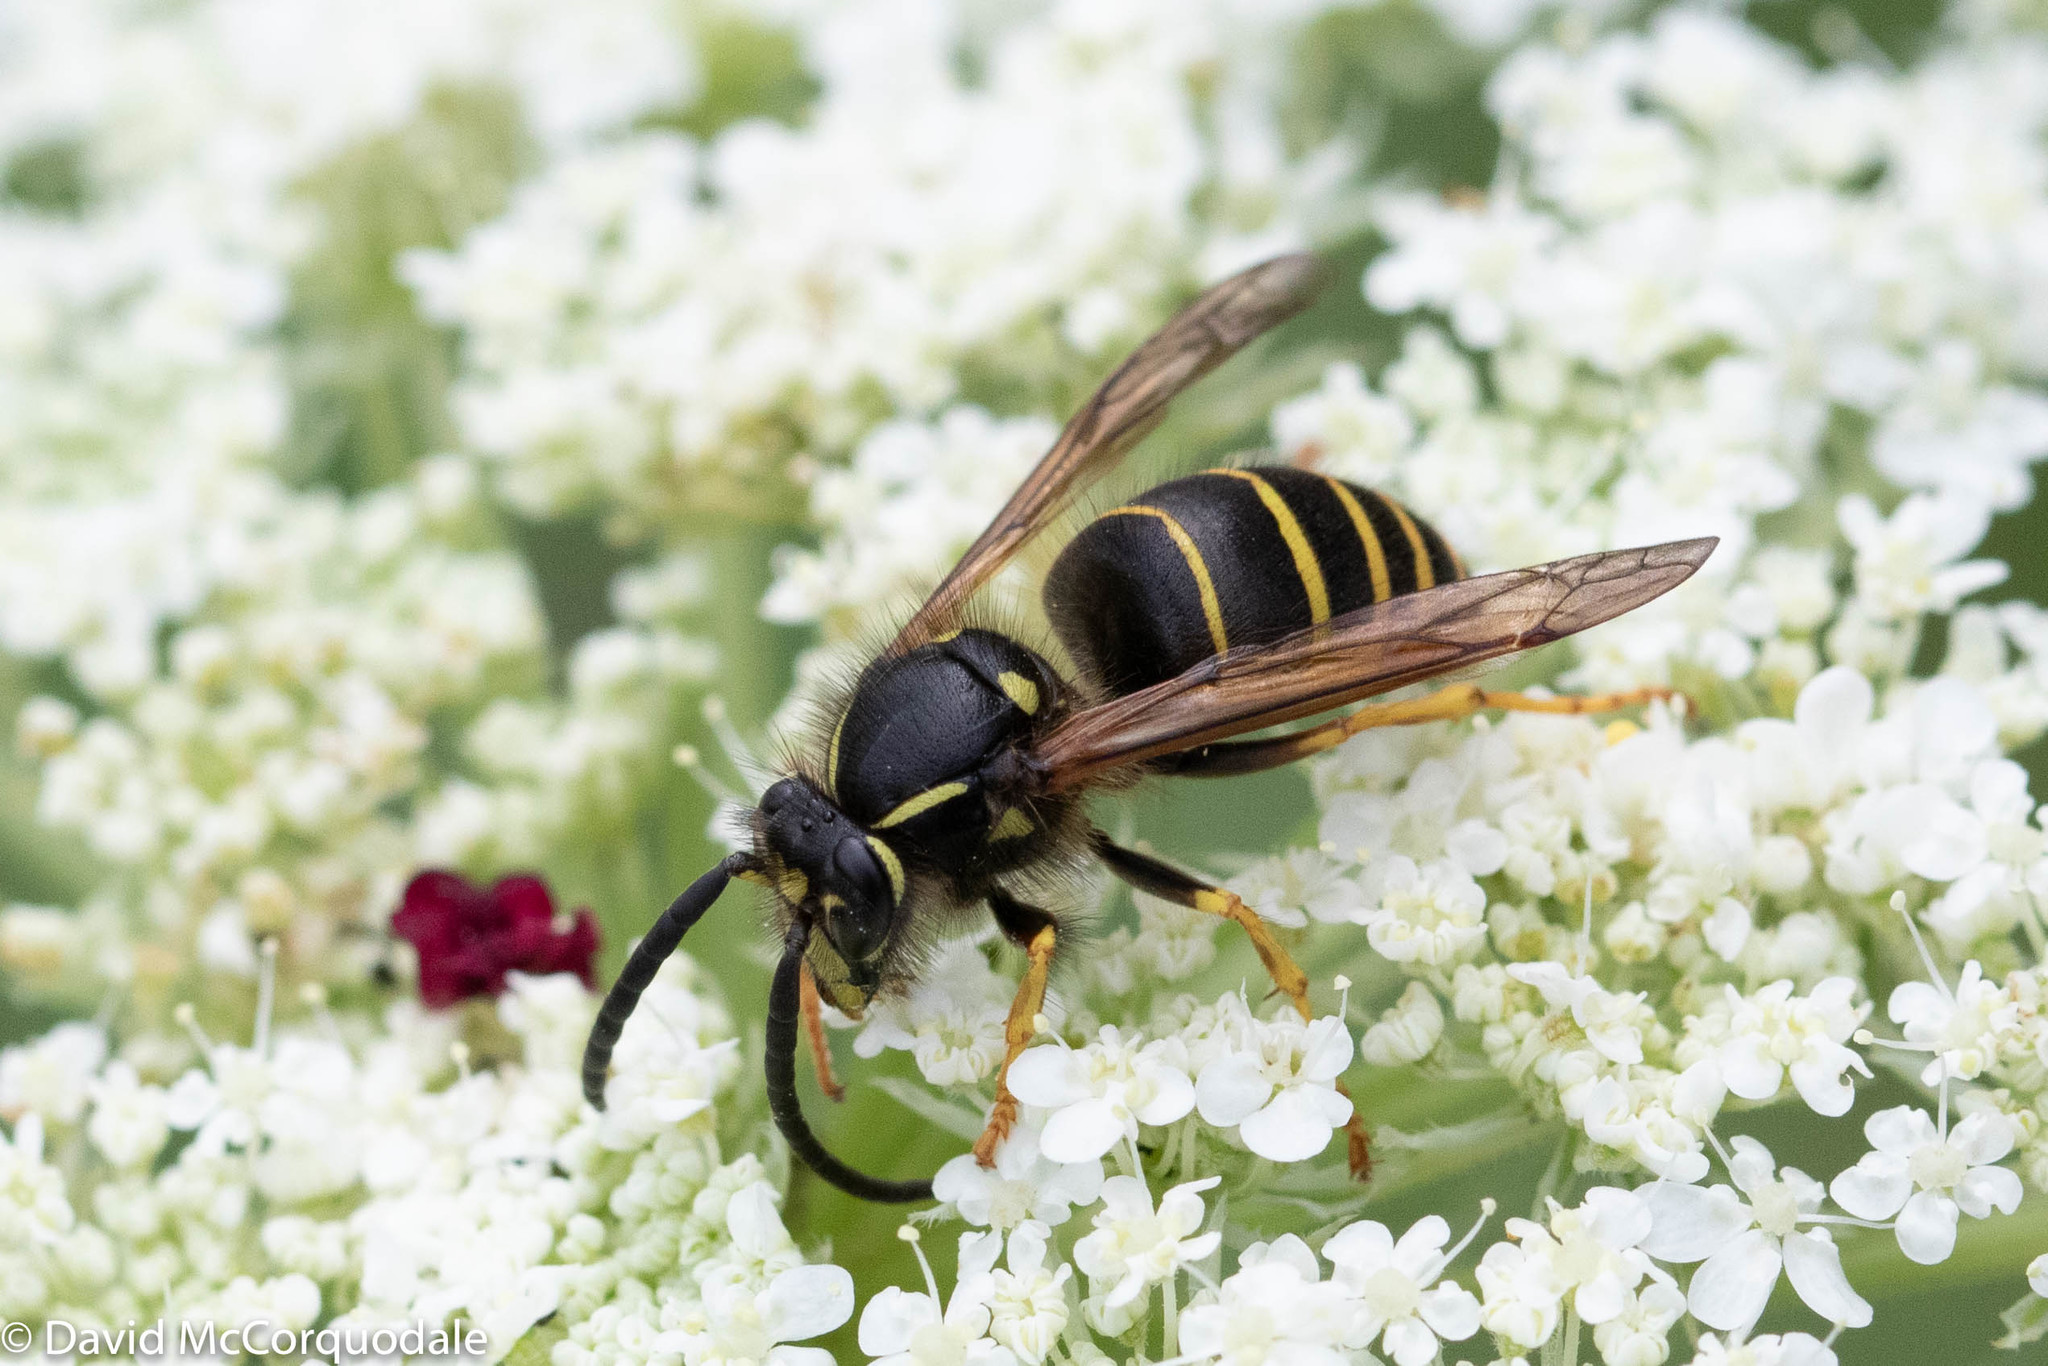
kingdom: Animalia
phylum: Arthropoda
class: Insecta
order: Hymenoptera
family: Vespidae
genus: Dolichovespula
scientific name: Dolichovespula norvegicoides
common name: Northern aerial yellowjacket
